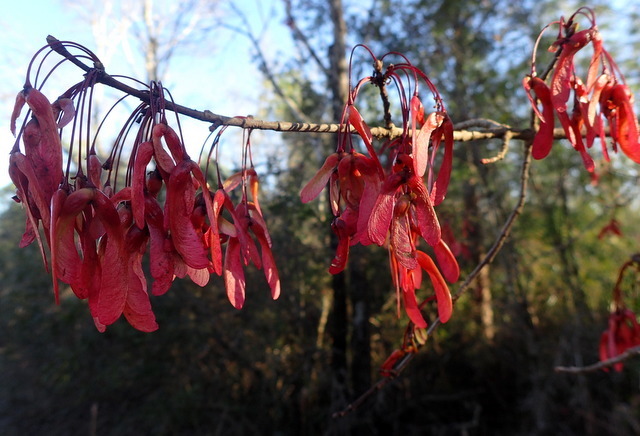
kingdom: Plantae
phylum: Tracheophyta
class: Magnoliopsida
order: Sapindales
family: Sapindaceae
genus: Acer
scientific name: Acer rubrum
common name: Red maple
